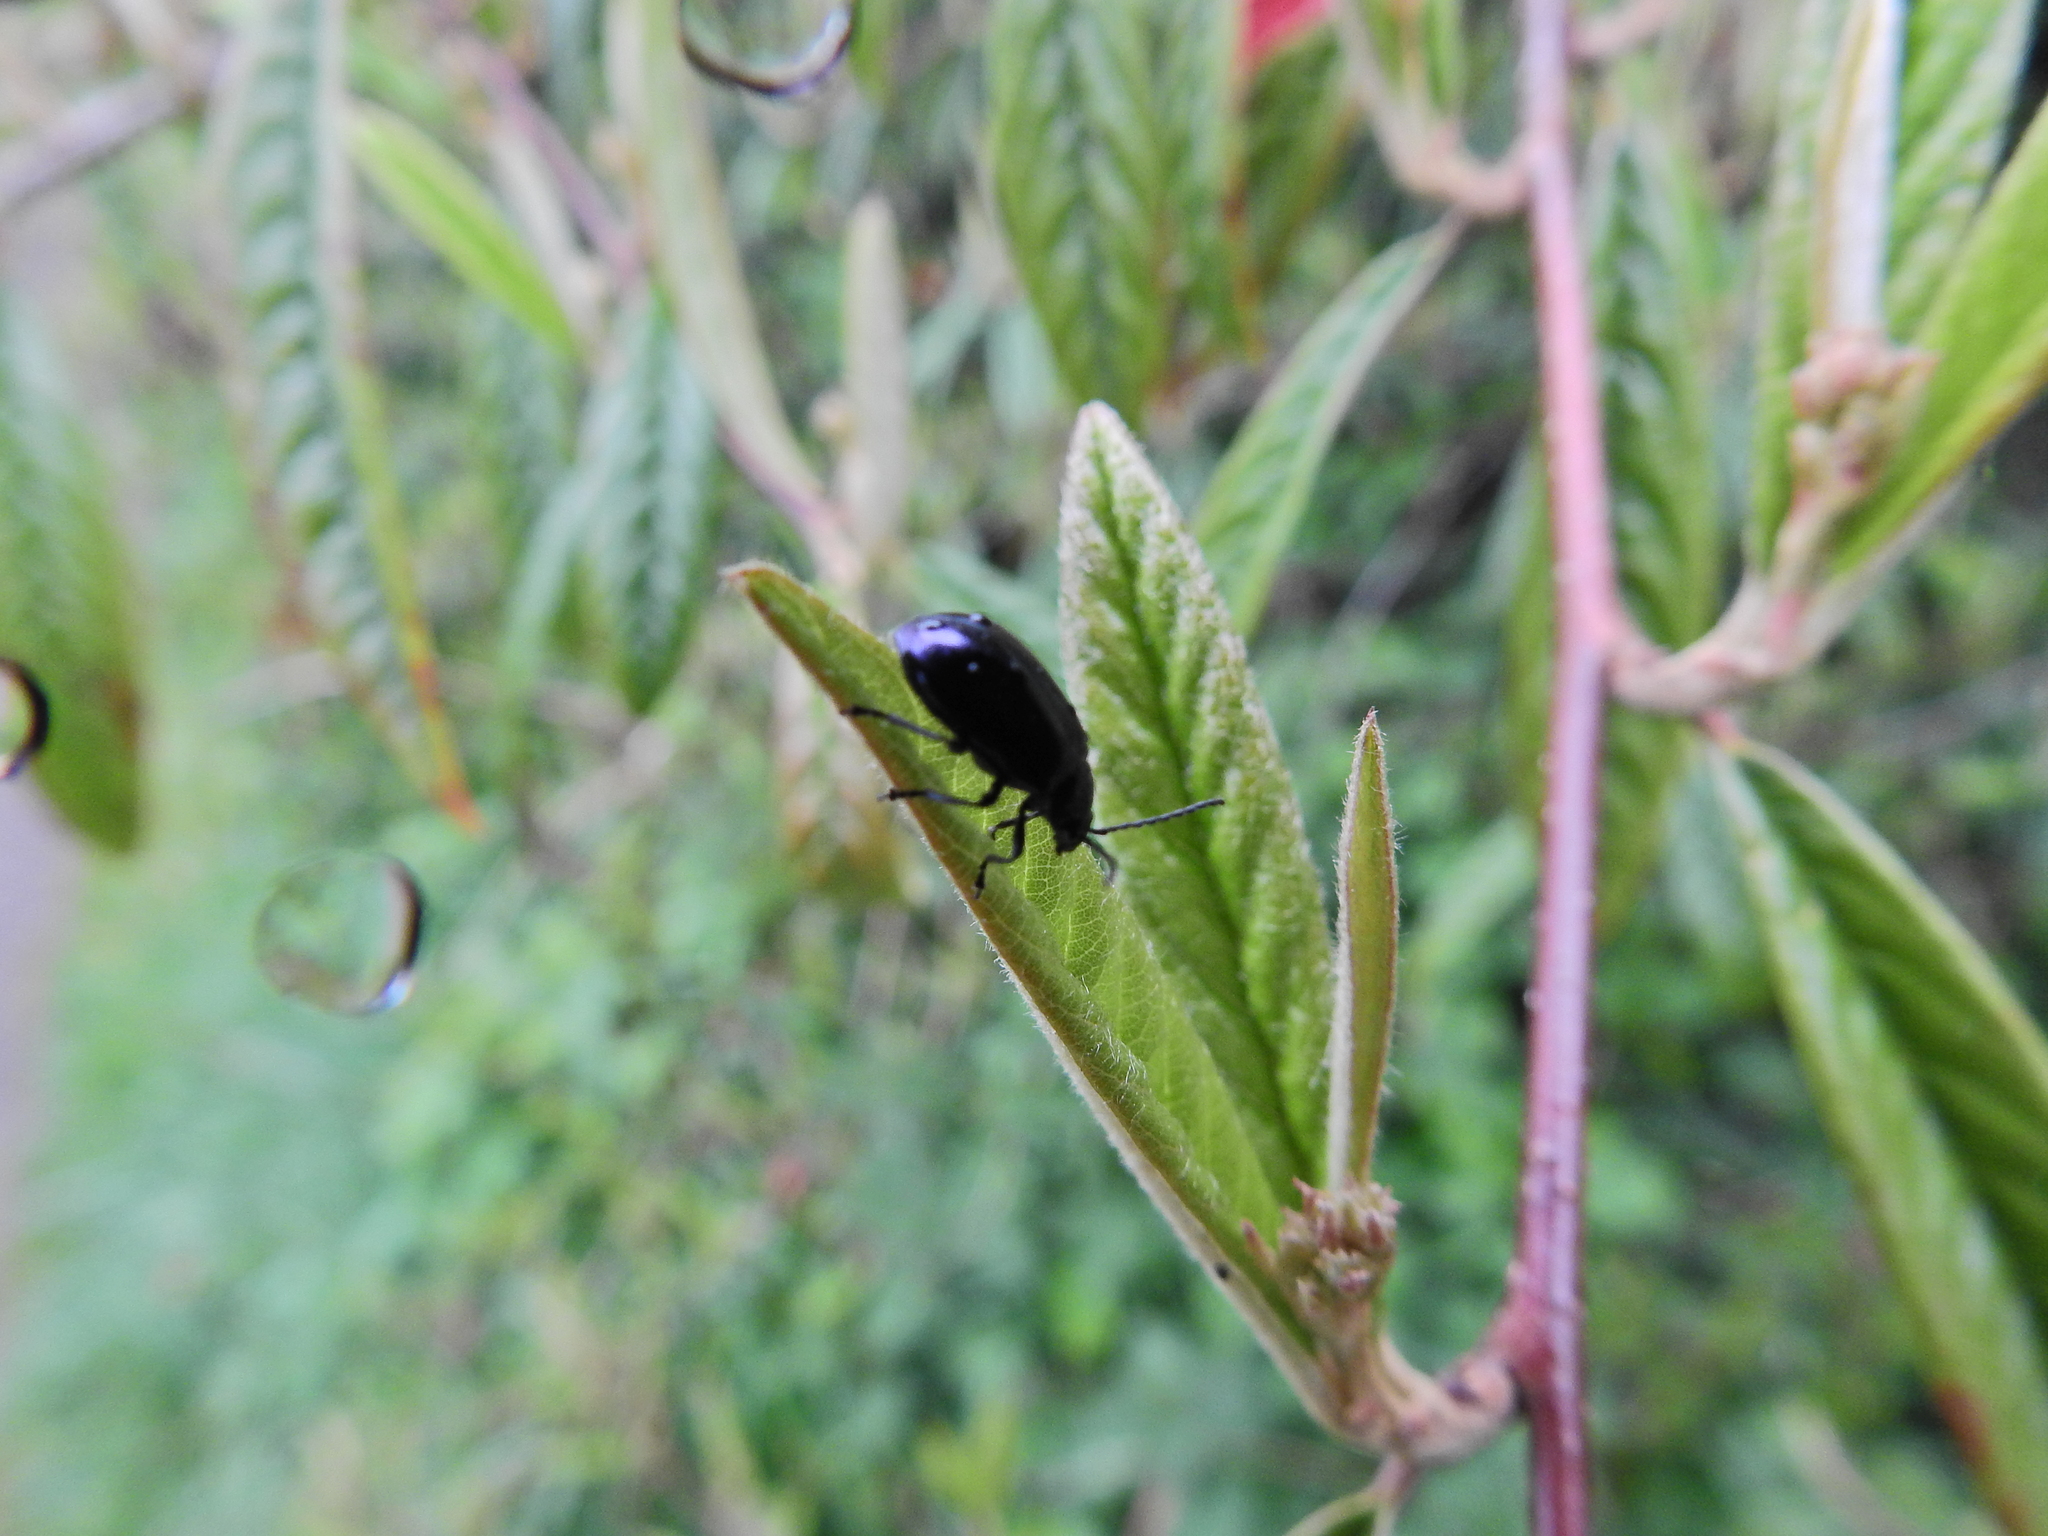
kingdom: Animalia
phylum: Arthropoda
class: Insecta
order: Coleoptera
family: Chrysomelidae
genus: Agelastica
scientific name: Agelastica alni
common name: Alder leaf beetle
